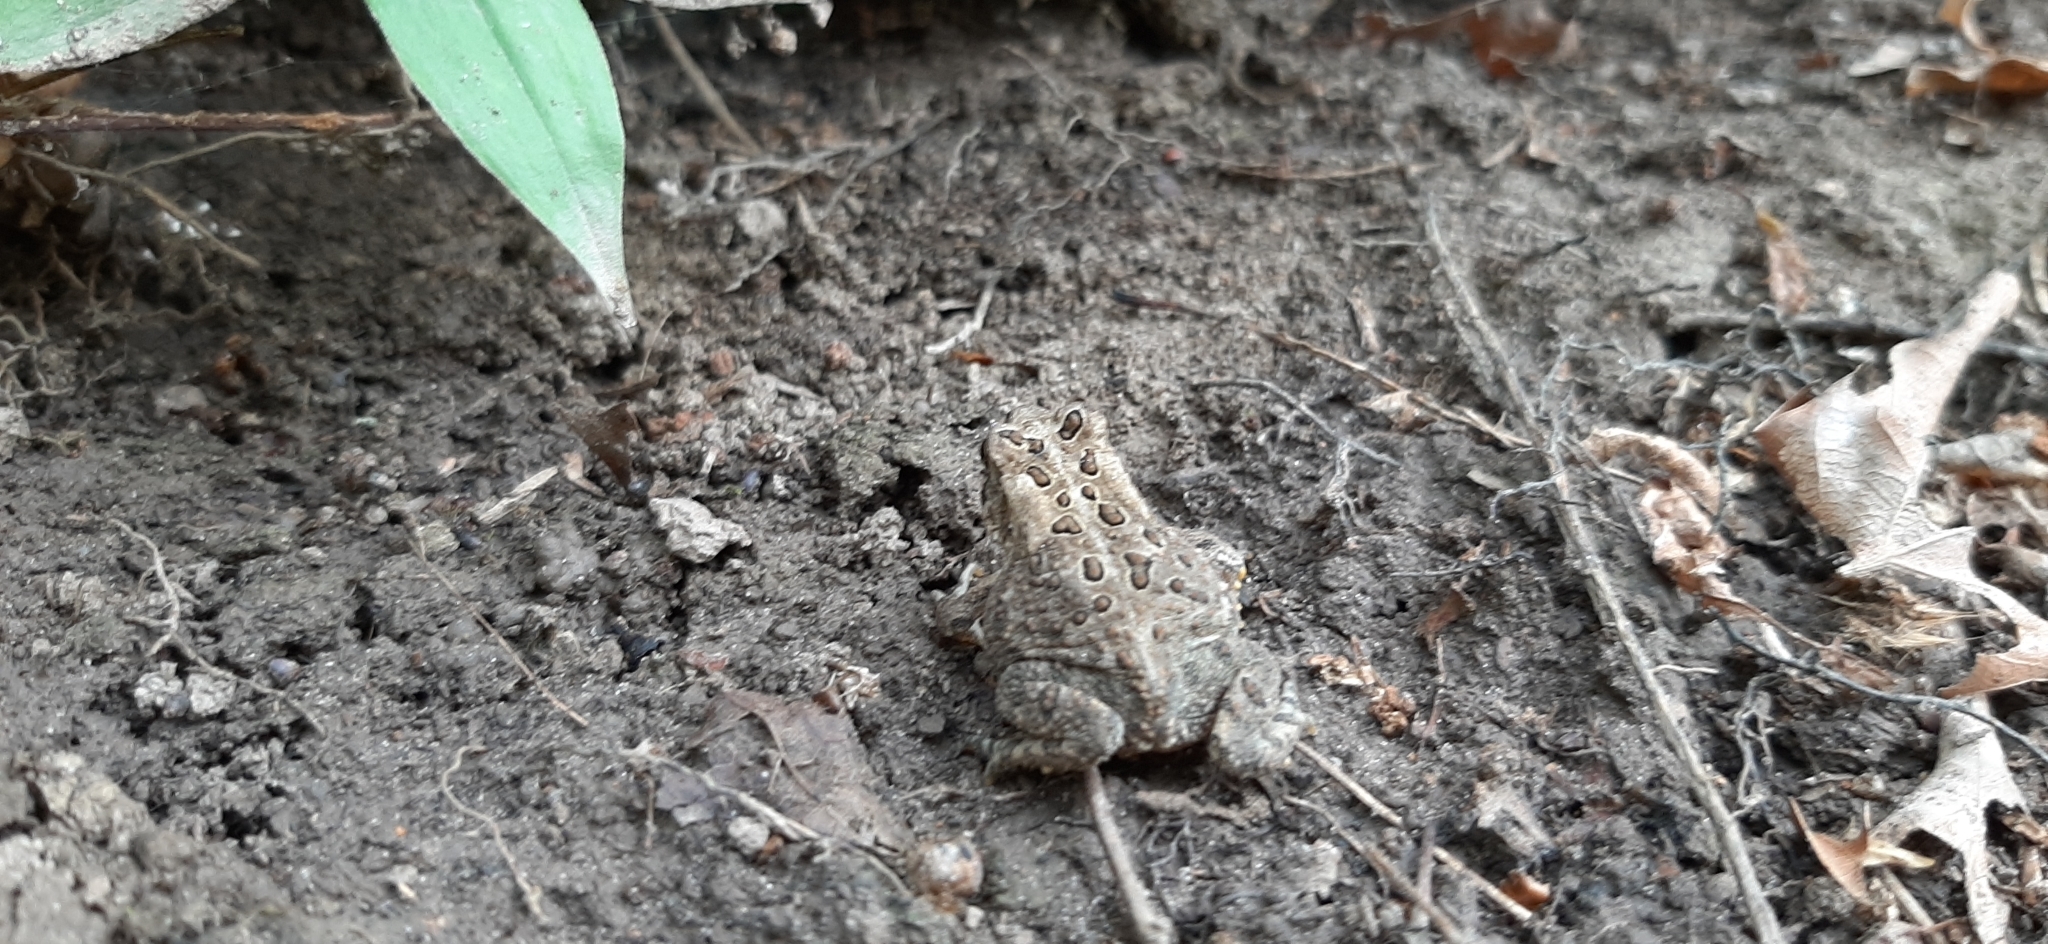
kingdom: Animalia
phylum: Chordata
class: Amphibia
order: Anura
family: Bufonidae
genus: Anaxyrus
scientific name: Anaxyrus americanus
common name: American toad
